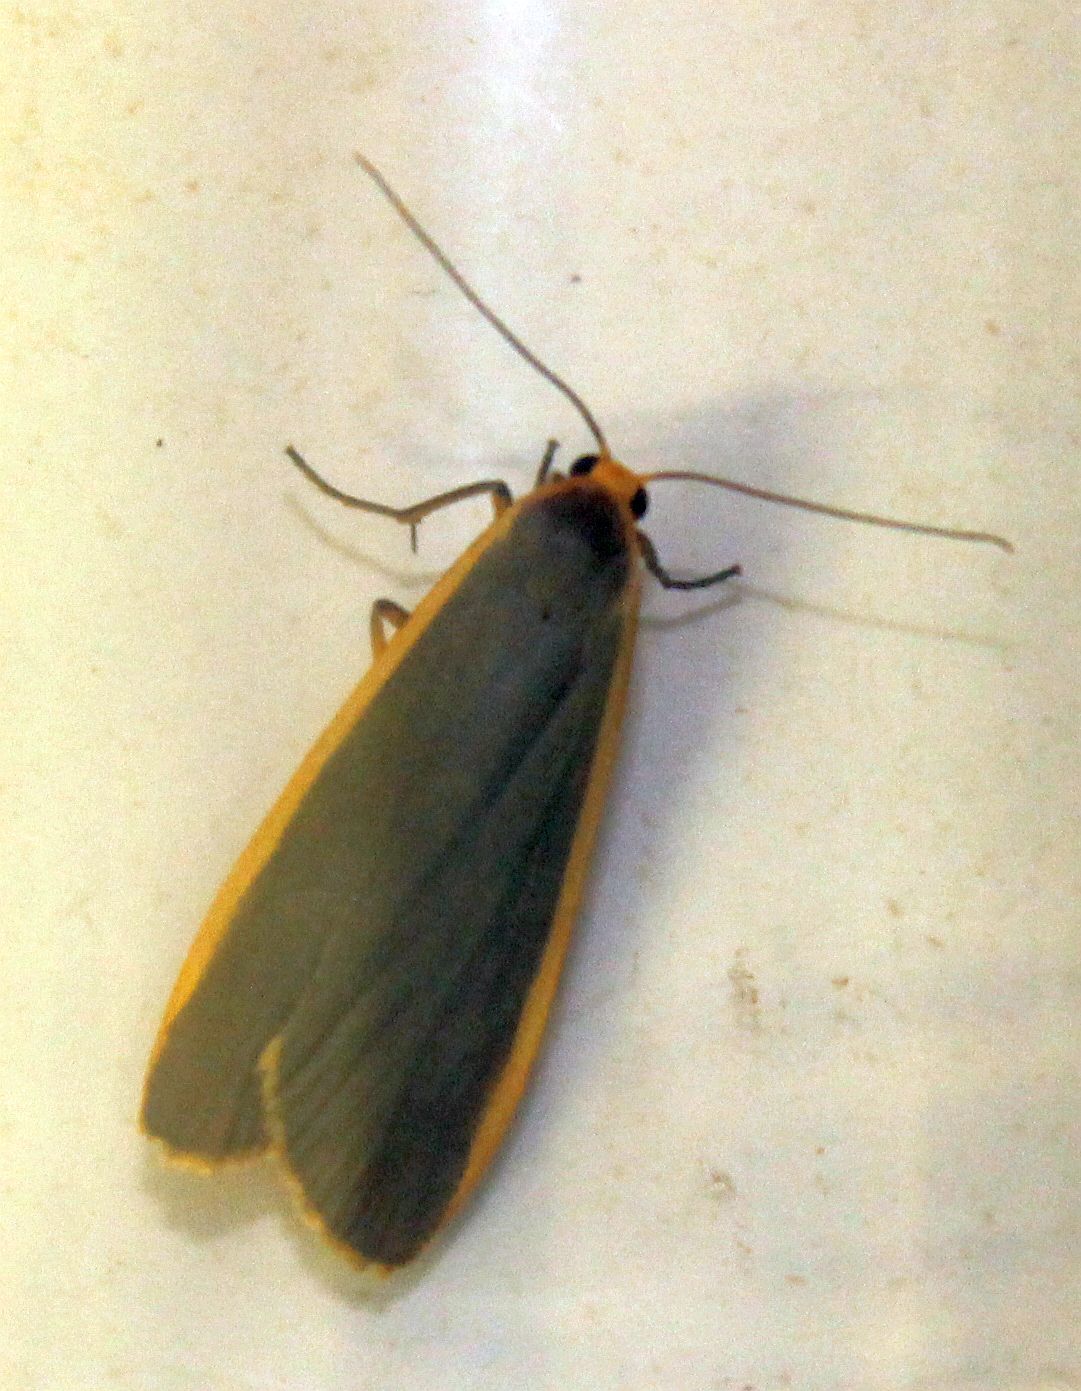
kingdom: Animalia
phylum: Arthropoda
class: Insecta
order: Lepidoptera
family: Erebidae
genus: Nyea
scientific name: Nyea lurideola
